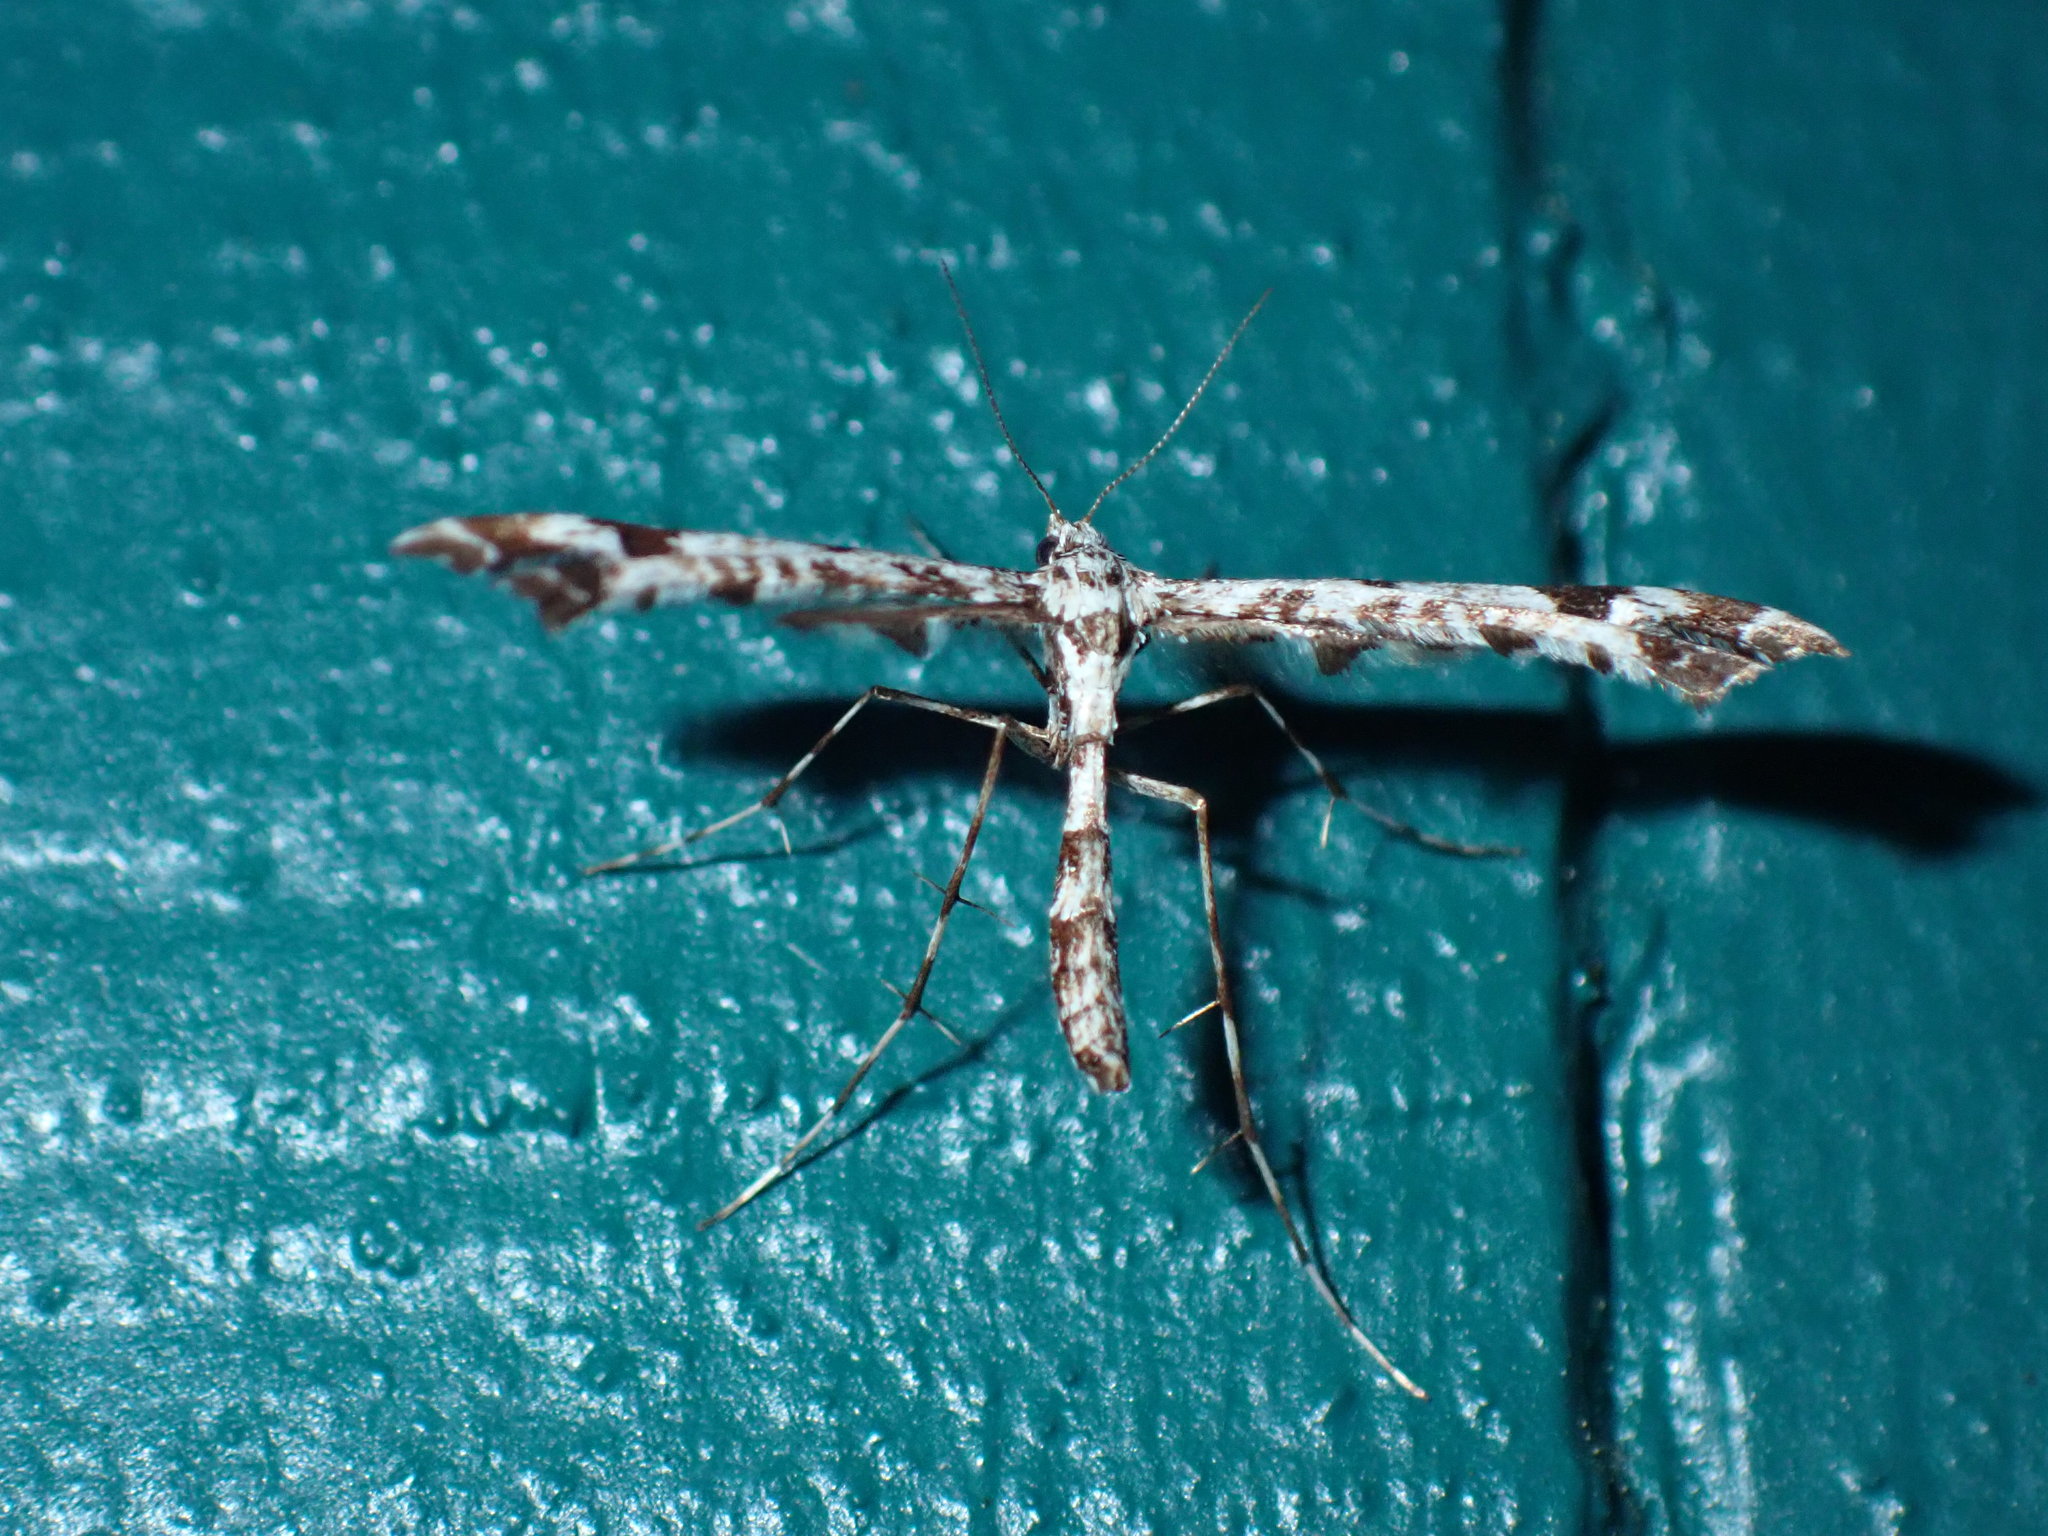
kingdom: Animalia
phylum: Arthropoda
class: Insecta
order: Lepidoptera
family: Pterophoridae
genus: Amblyptilia
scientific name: Amblyptilia pica
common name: Geranium plume moth
